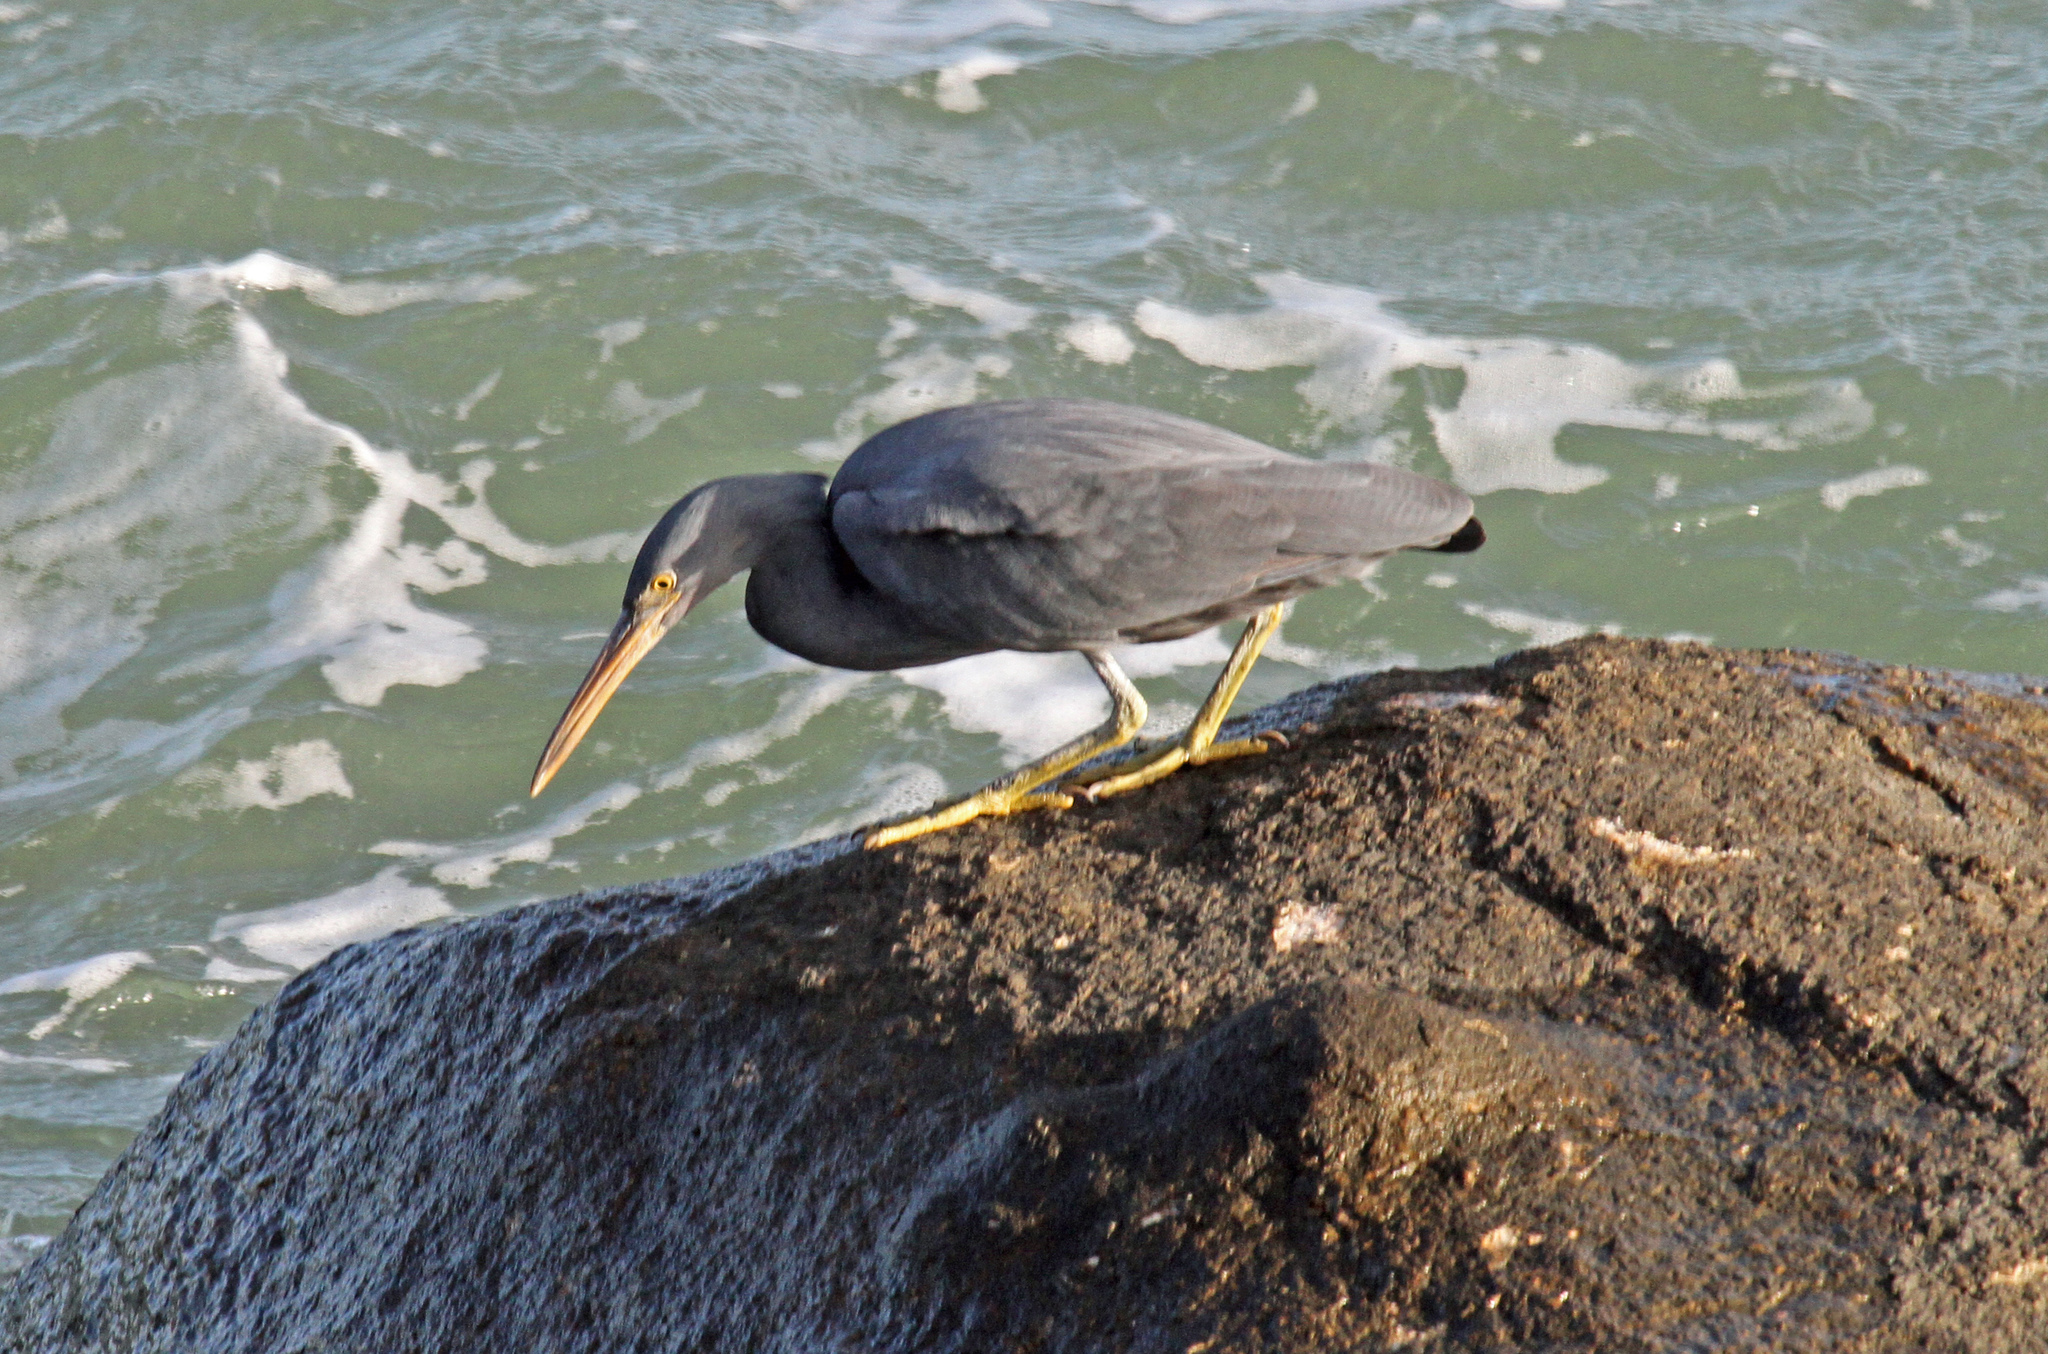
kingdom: Animalia
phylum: Chordata
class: Aves
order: Pelecaniformes
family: Ardeidae
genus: Egretta
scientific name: Egretta sacra
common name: Pacific reef heron
